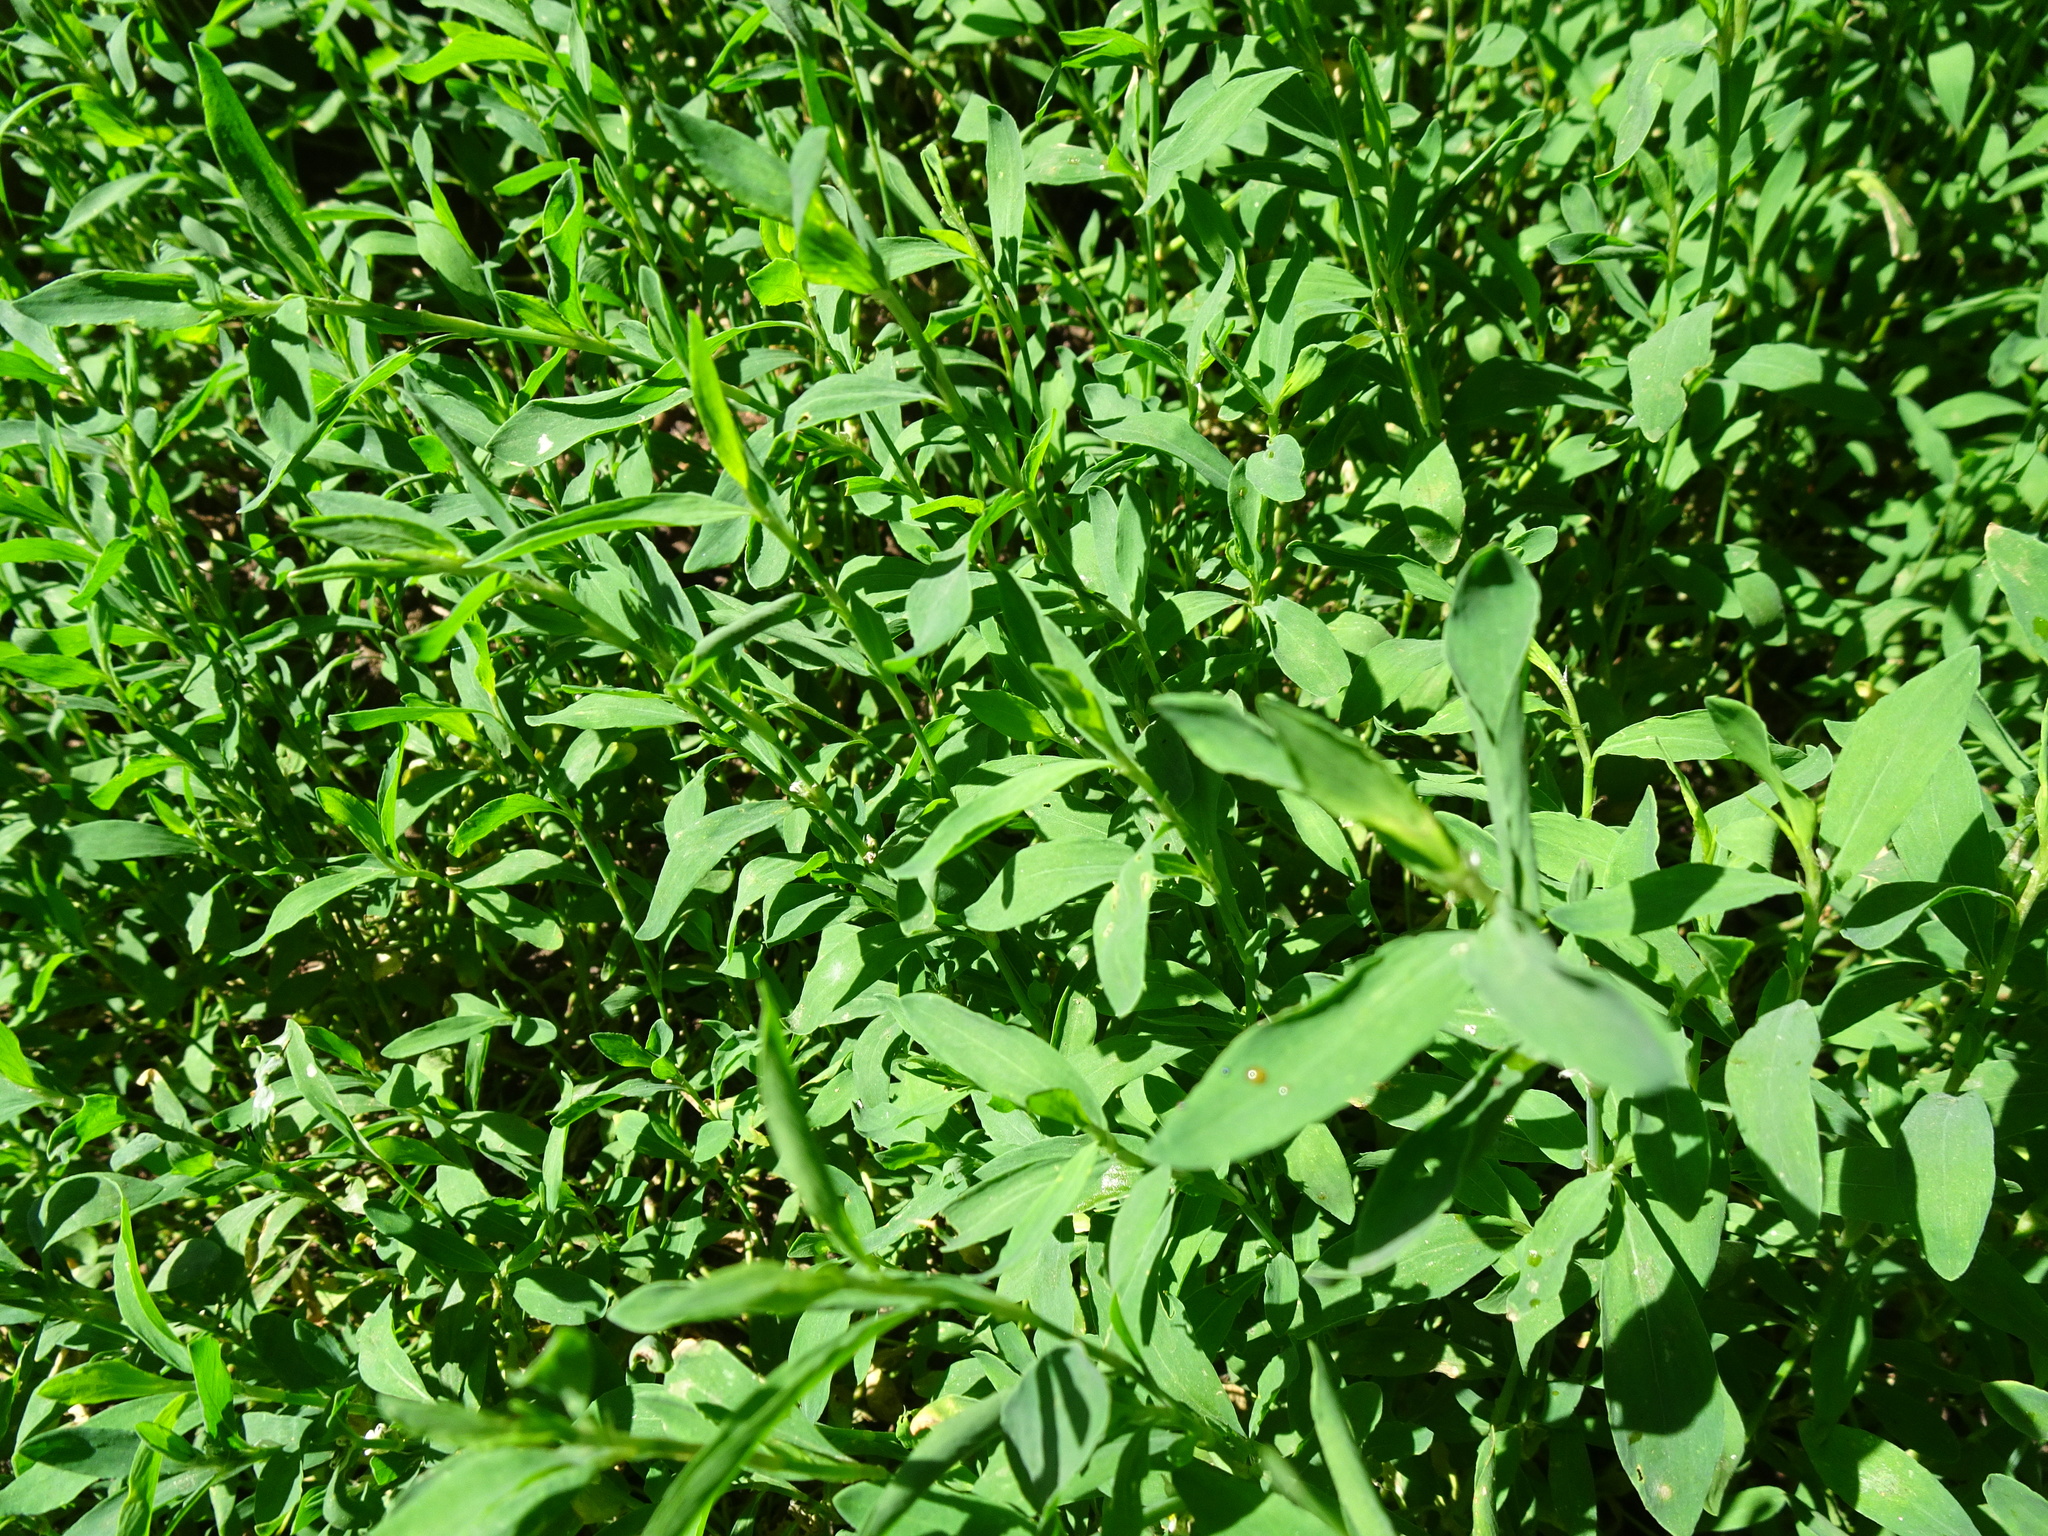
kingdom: Plantae
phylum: Tracheophyta
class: Magnoliopsida
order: Caryophyllales
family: Polygonaceae
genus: Polygonum
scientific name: Polygonum aviculare
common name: Prostrate knotweed
